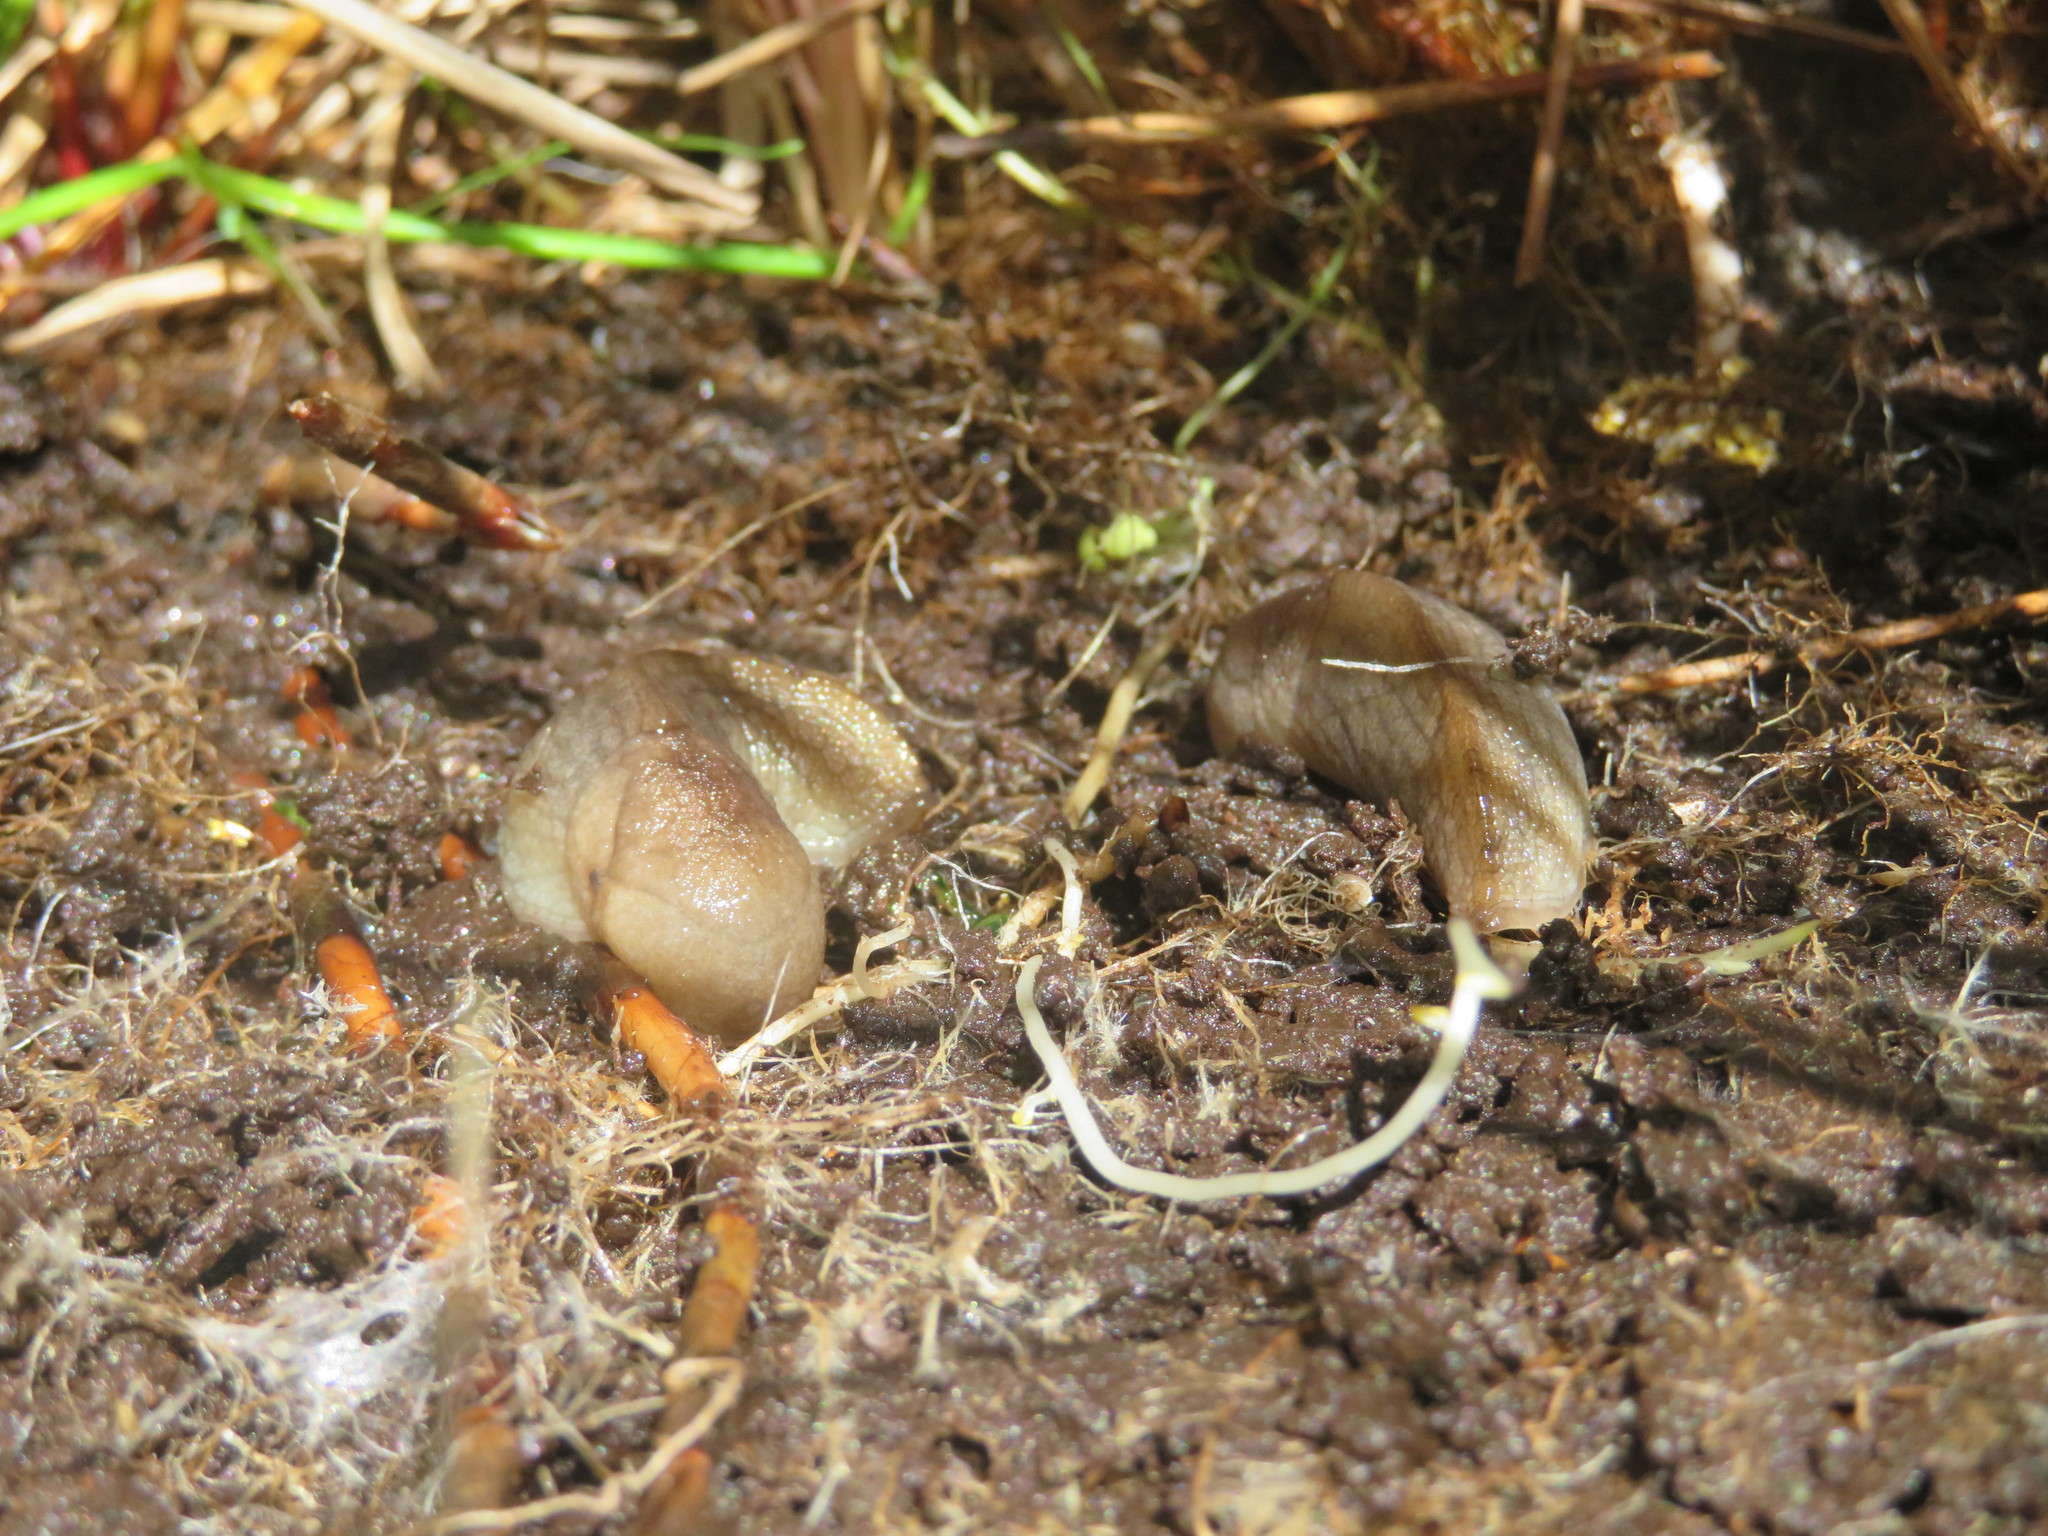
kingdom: Animalia
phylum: Mollusca
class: Gastropoda
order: Stylommatophora
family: Milacidae
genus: Milax
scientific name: Milax gagates
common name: Greenhouse slug
